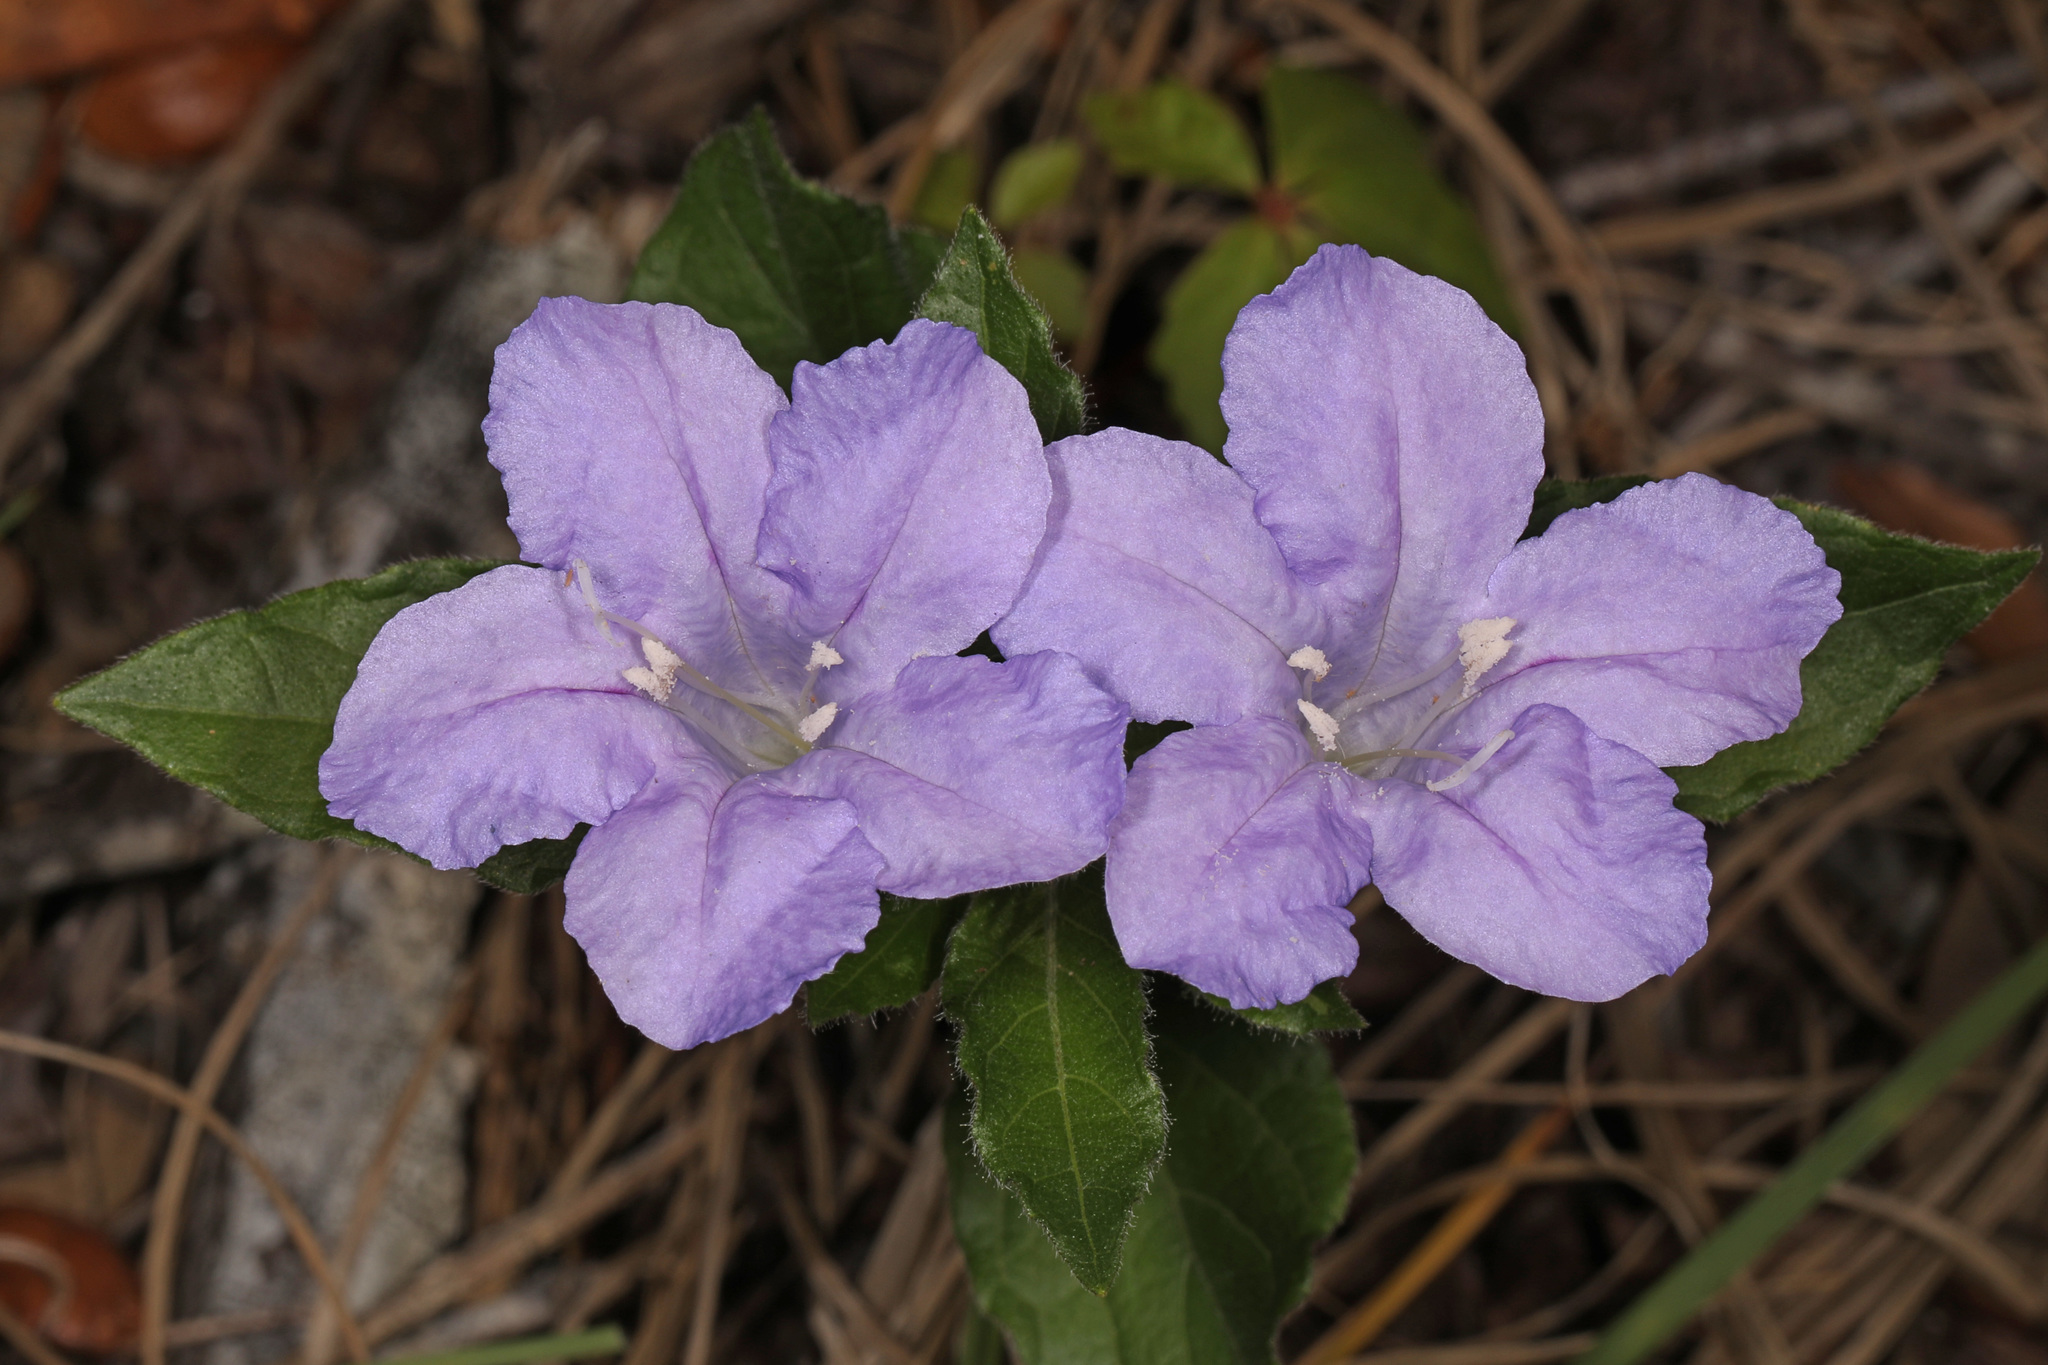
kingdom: Plantae
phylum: Tracheophyta
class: Magnoliopsida
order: Lamiales
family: Acanthaceae
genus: Ruellia
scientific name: Ruellia caroliniensis
